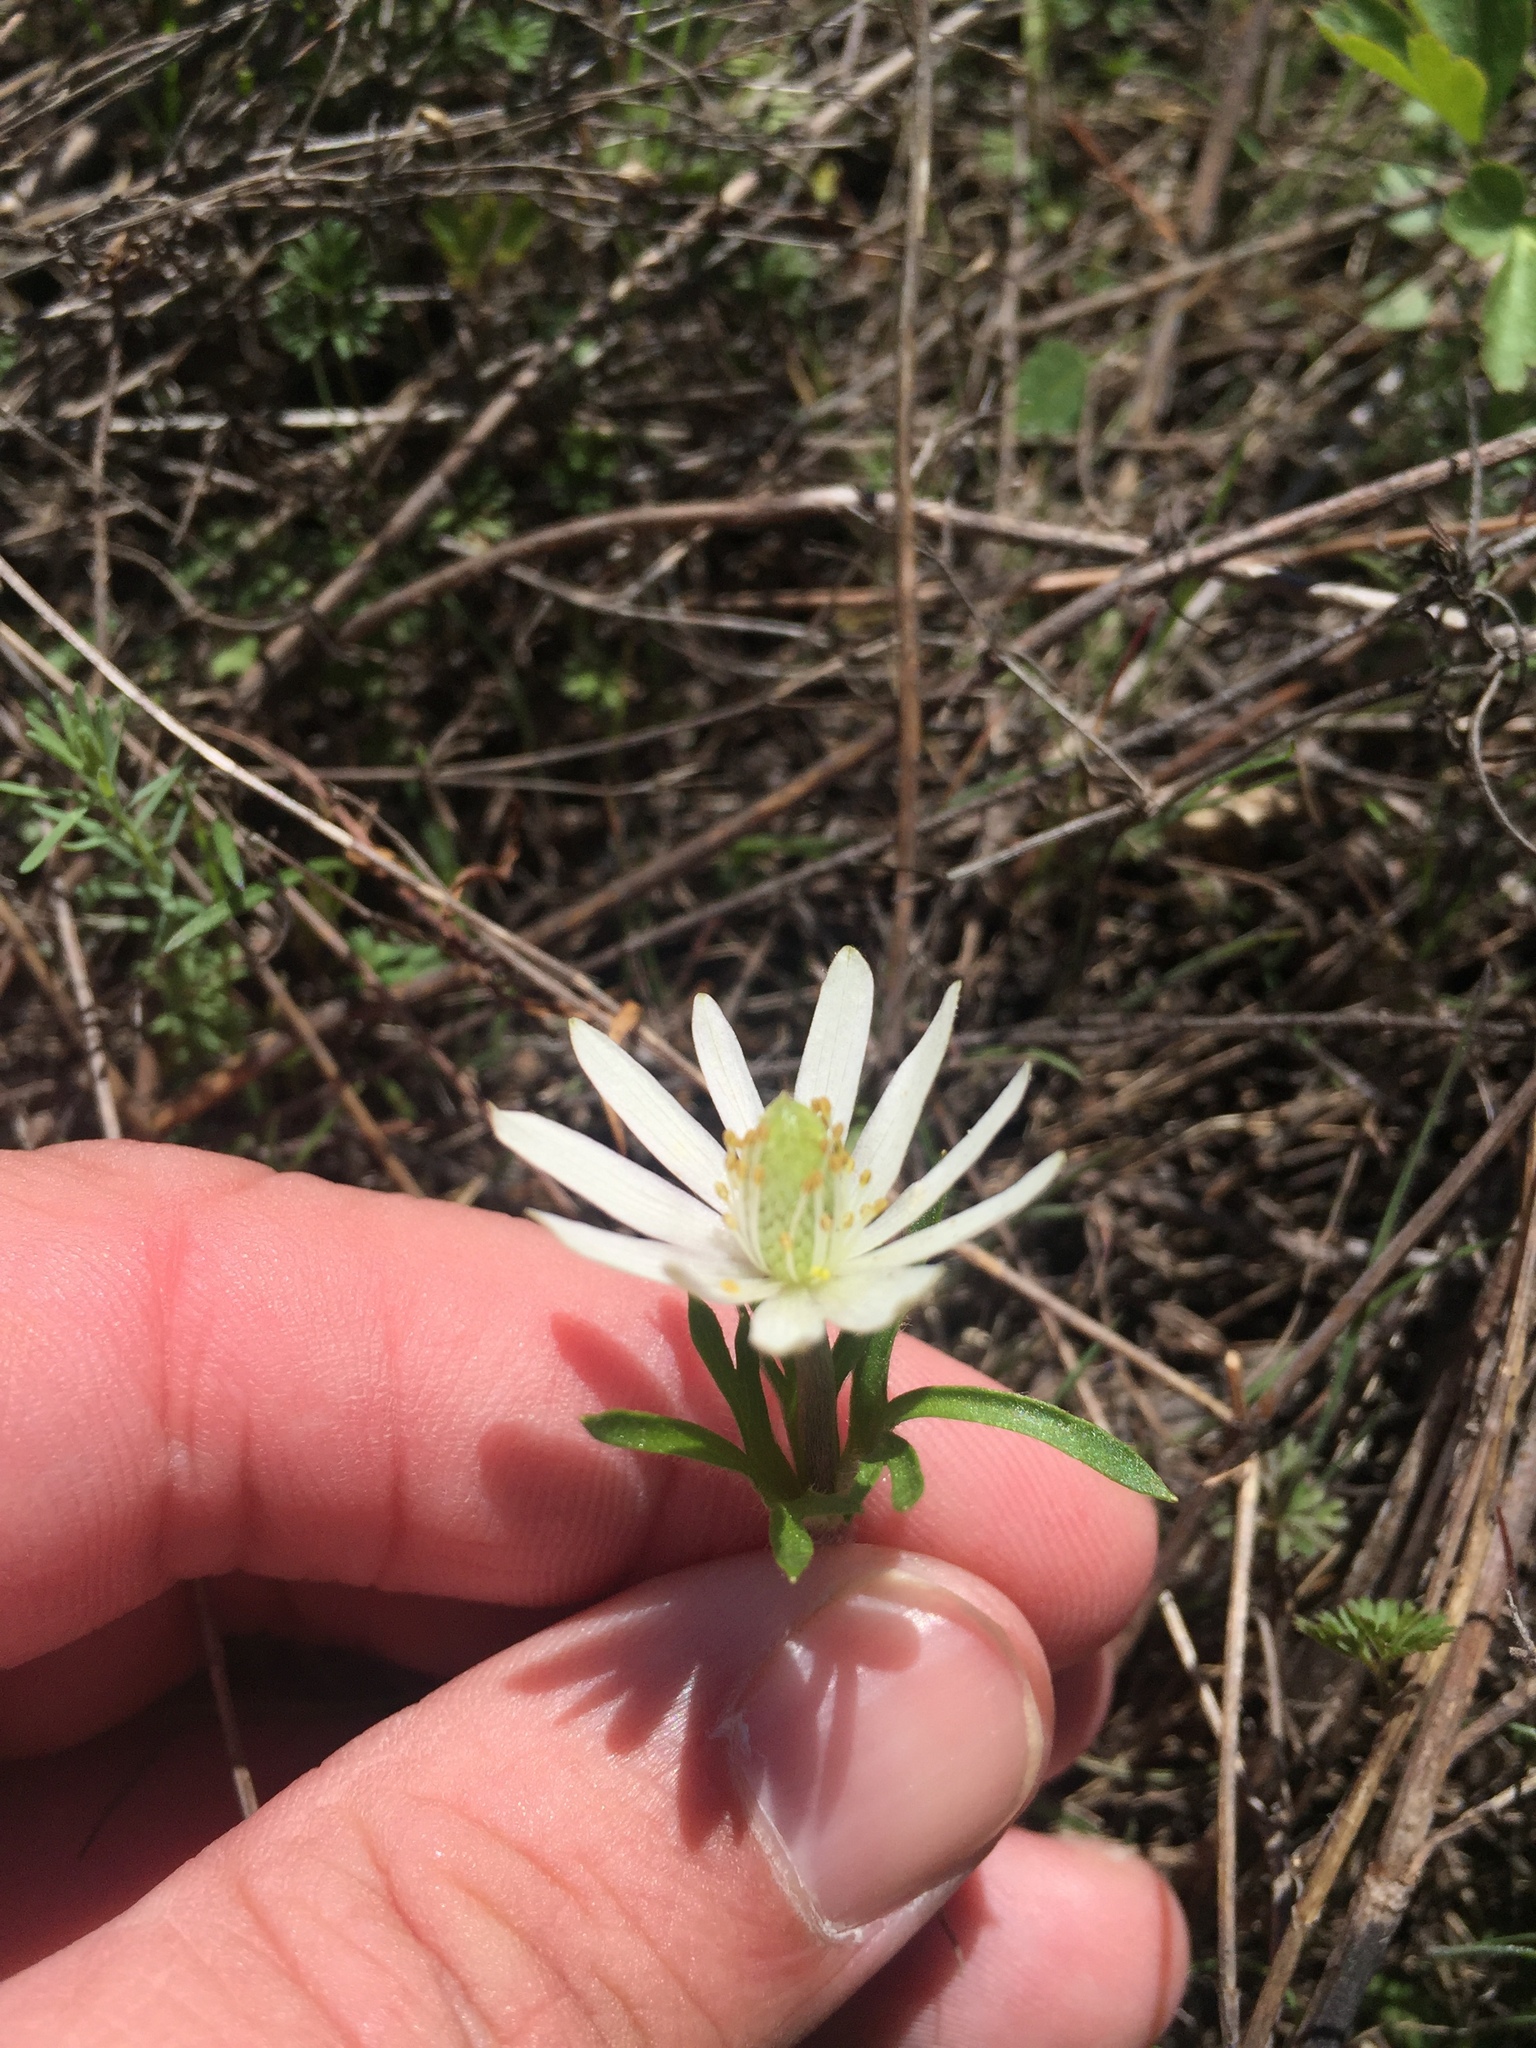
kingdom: Plantae
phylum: Tracheophyta
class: Magnoliopsida
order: Ranunculales
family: Ranunculaceae
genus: Anemone
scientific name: Anemone berlandieri
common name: Ten-petal anemone
